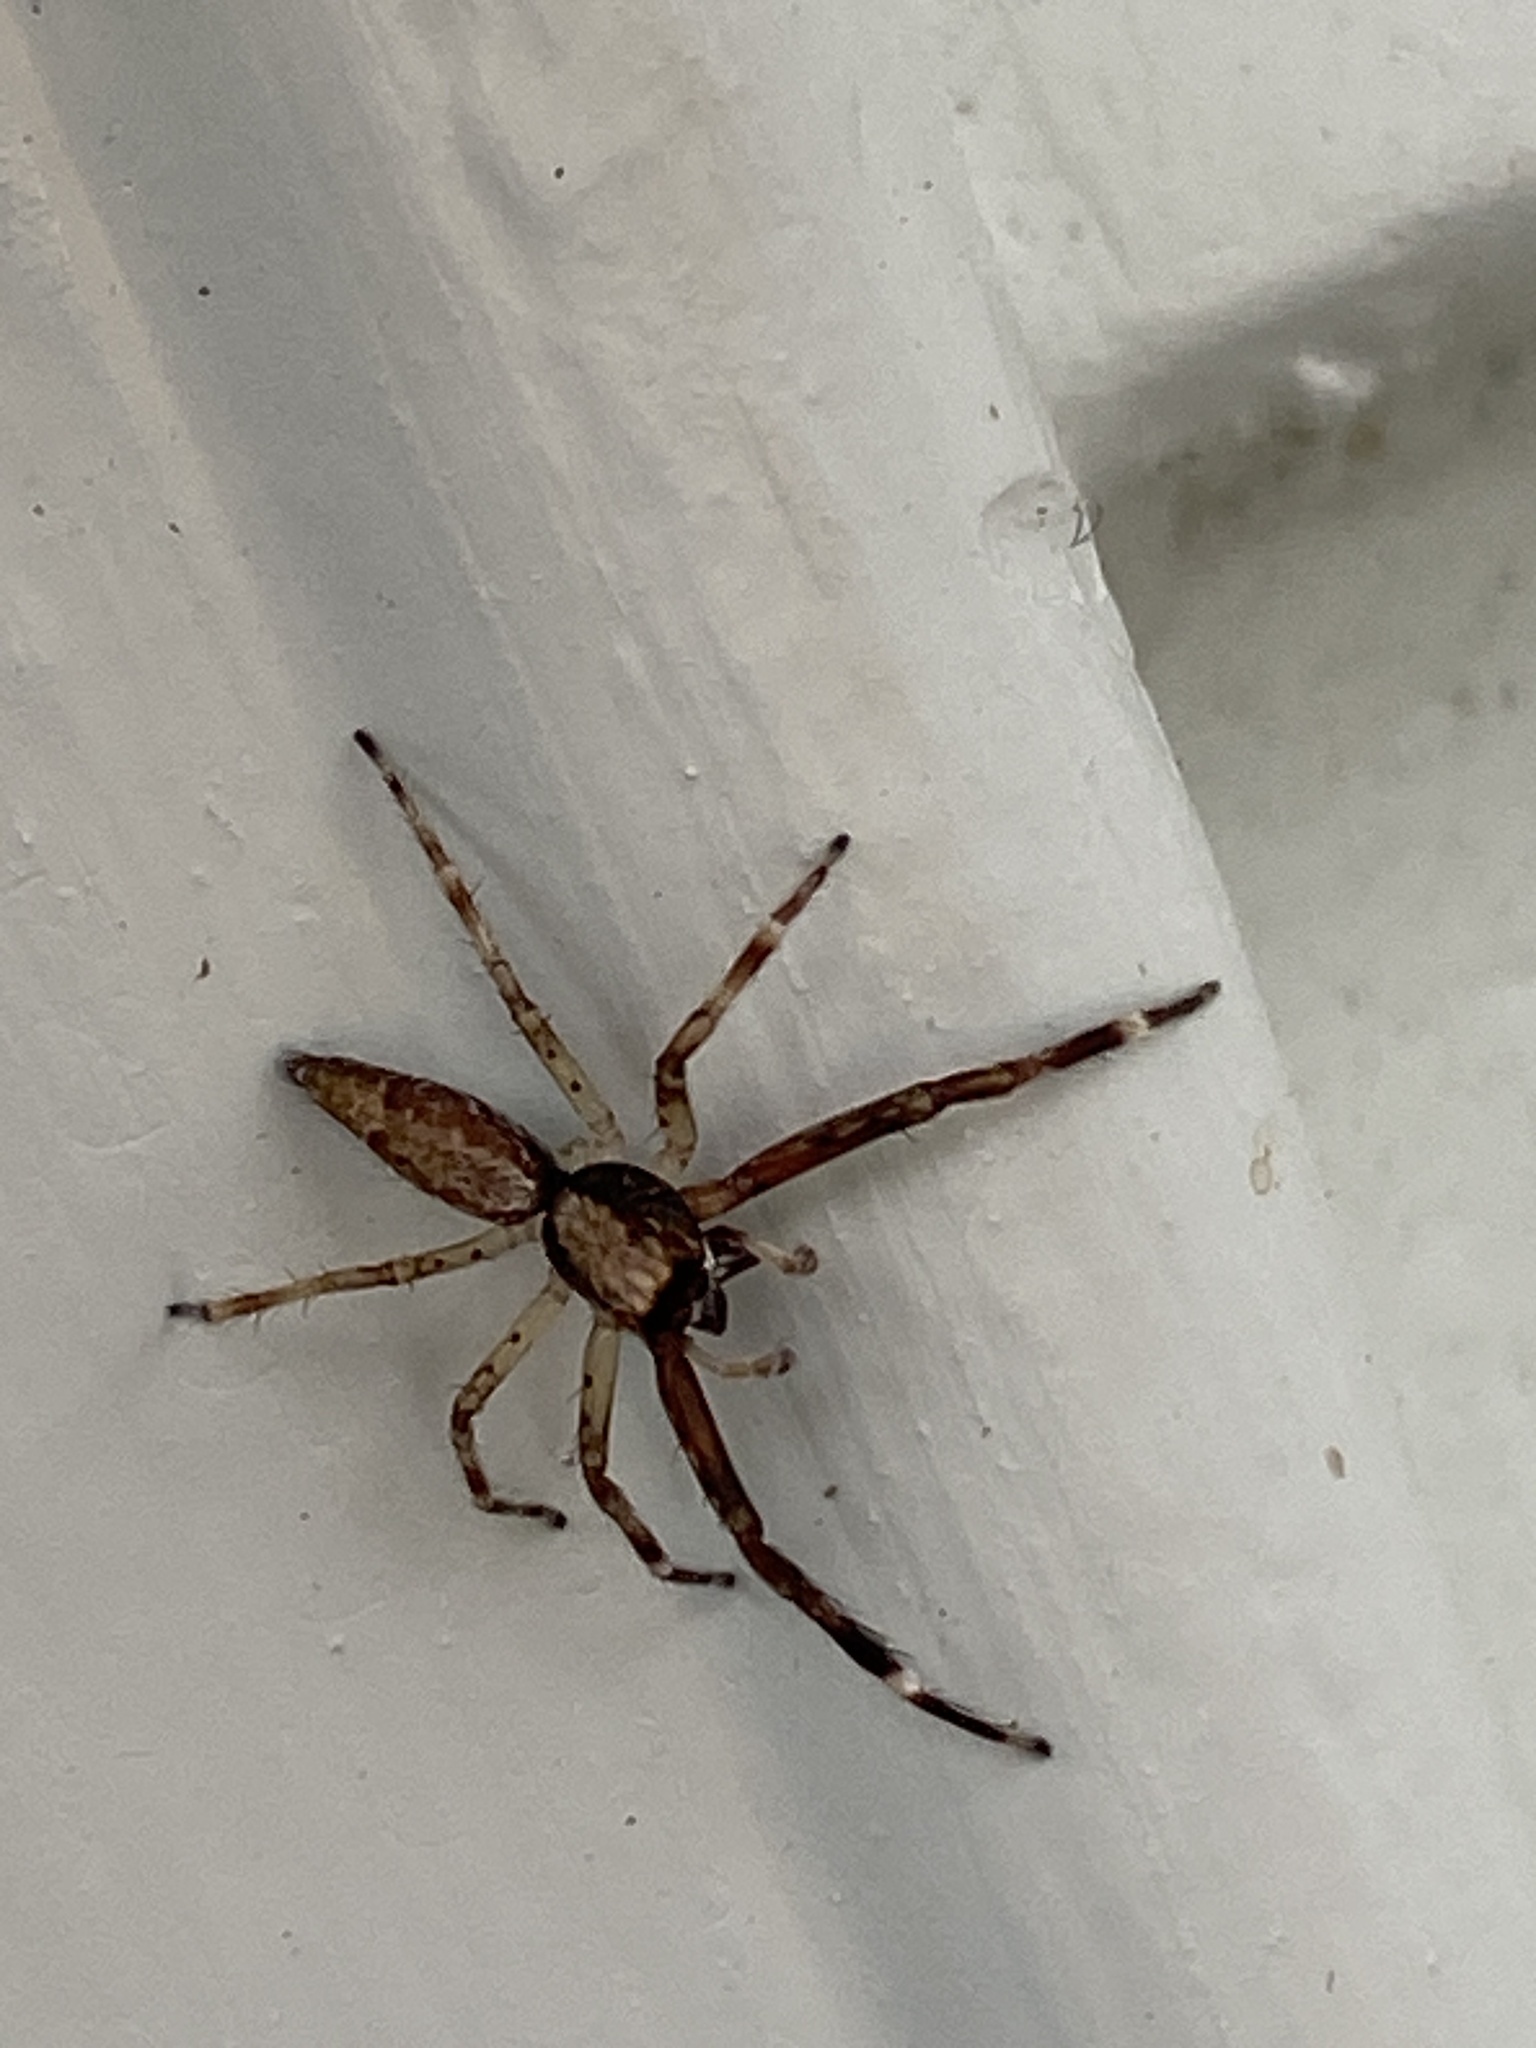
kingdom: Animalia
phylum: Arthropoda
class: Arachnida
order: Araneae
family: Salticidae
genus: Helpis
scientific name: Helpis minitabunda
